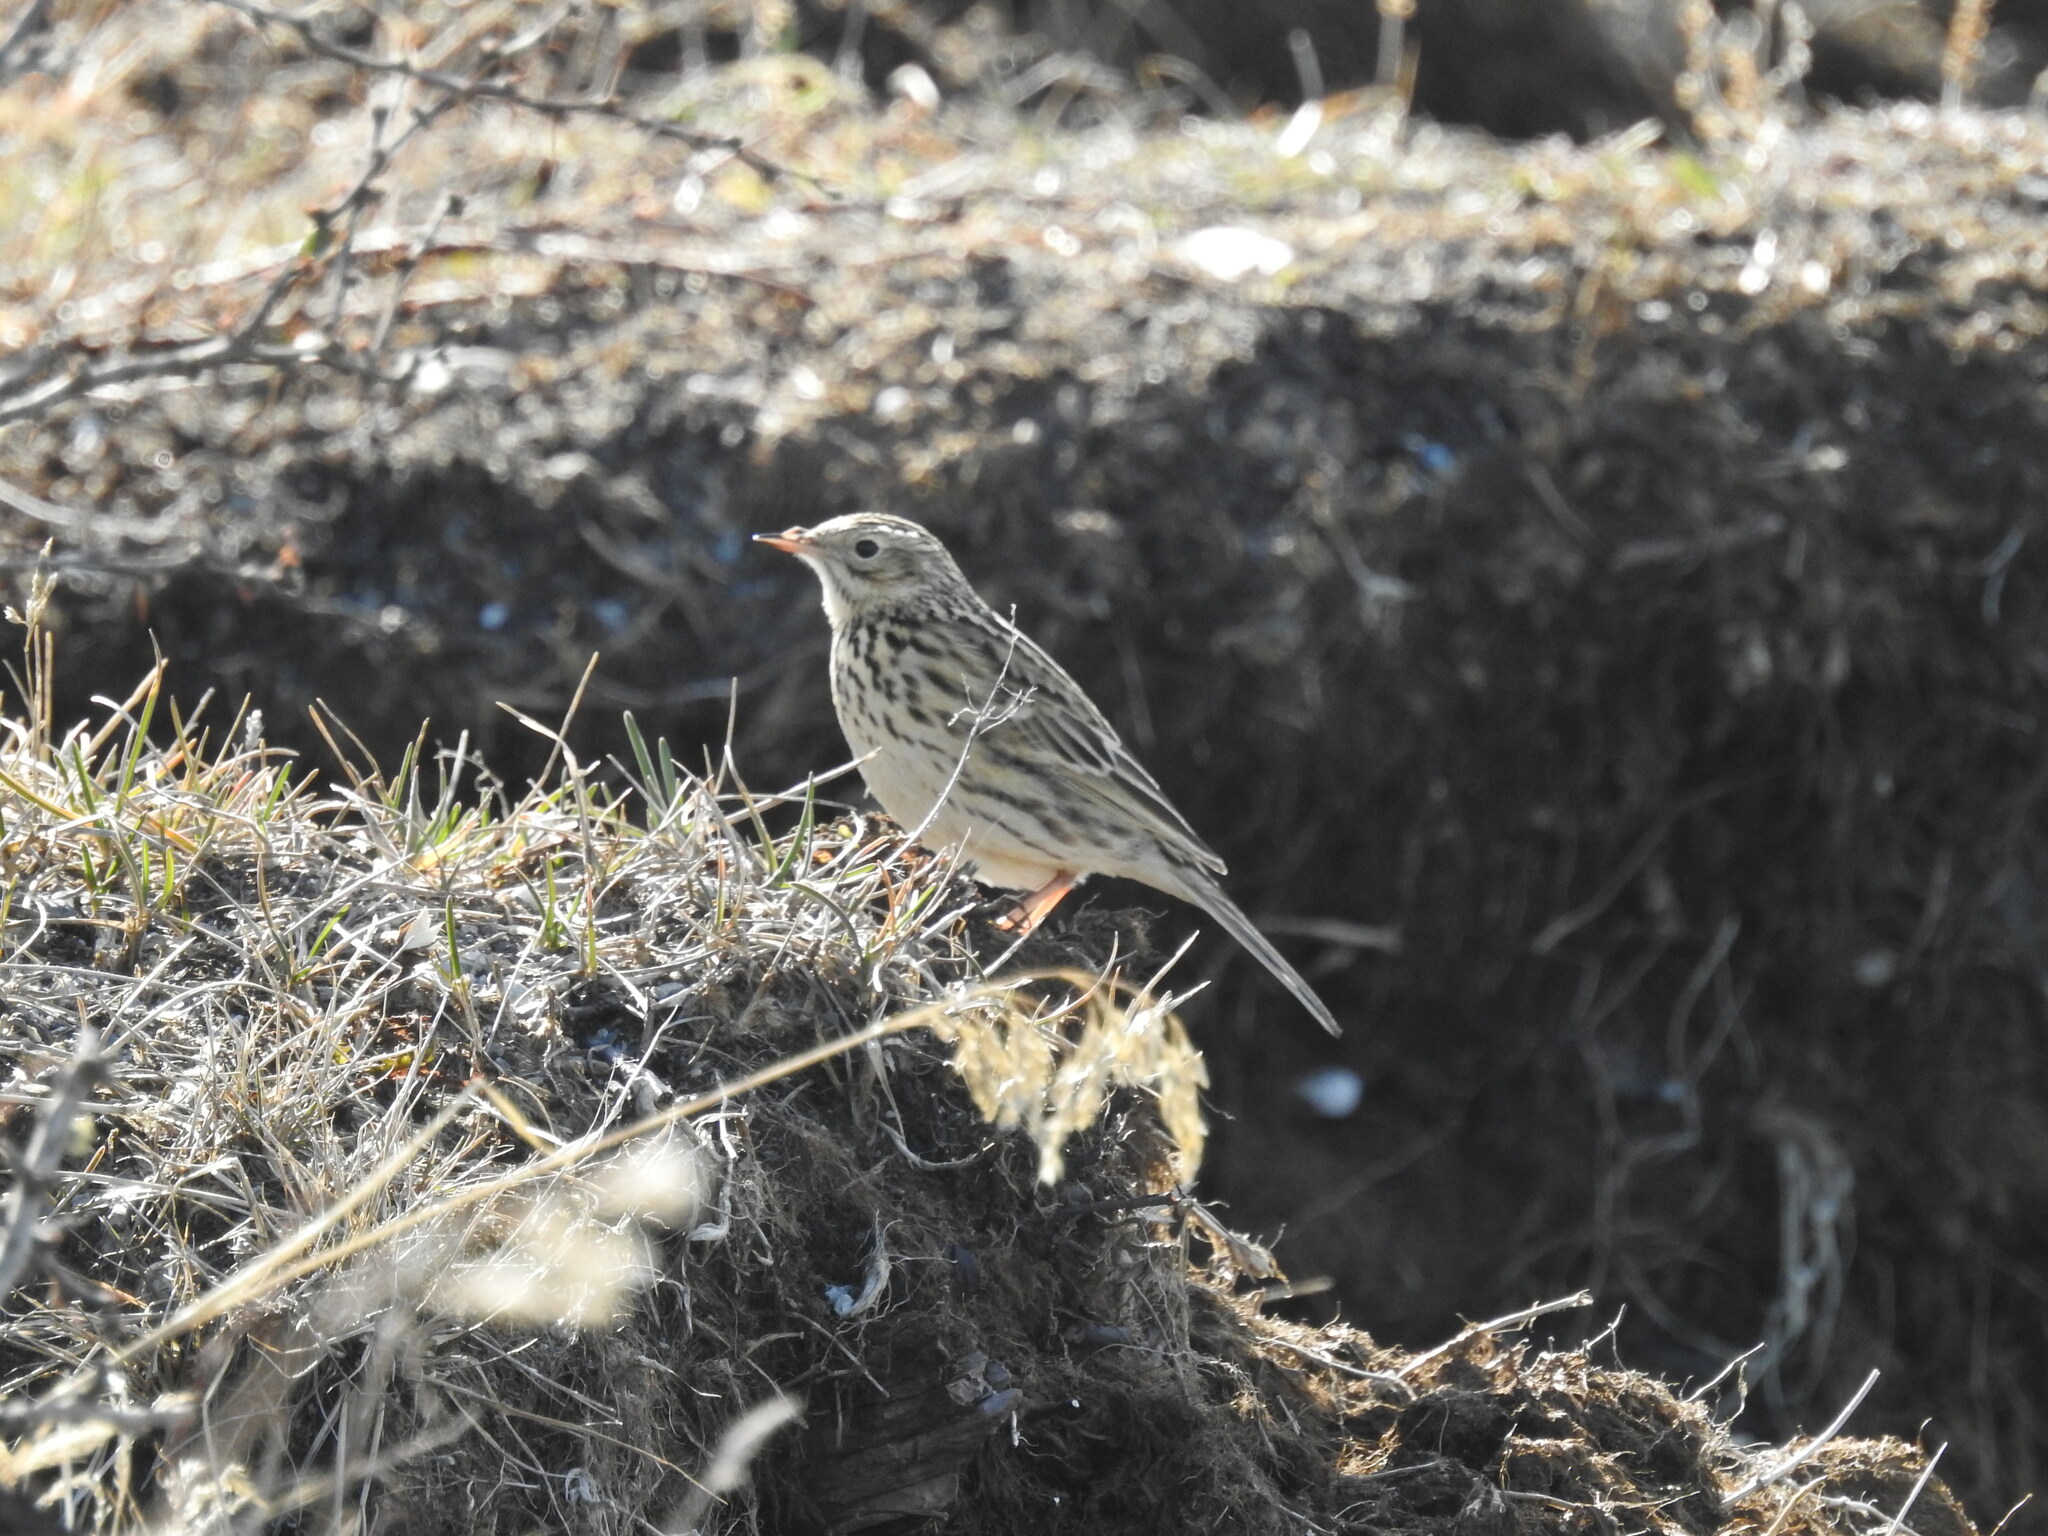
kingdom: Animalia
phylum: Chordata
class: Aves
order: Passeriformes
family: Motacillidae
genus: Anthus
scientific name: Anthus correndera
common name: Correndera pipit
